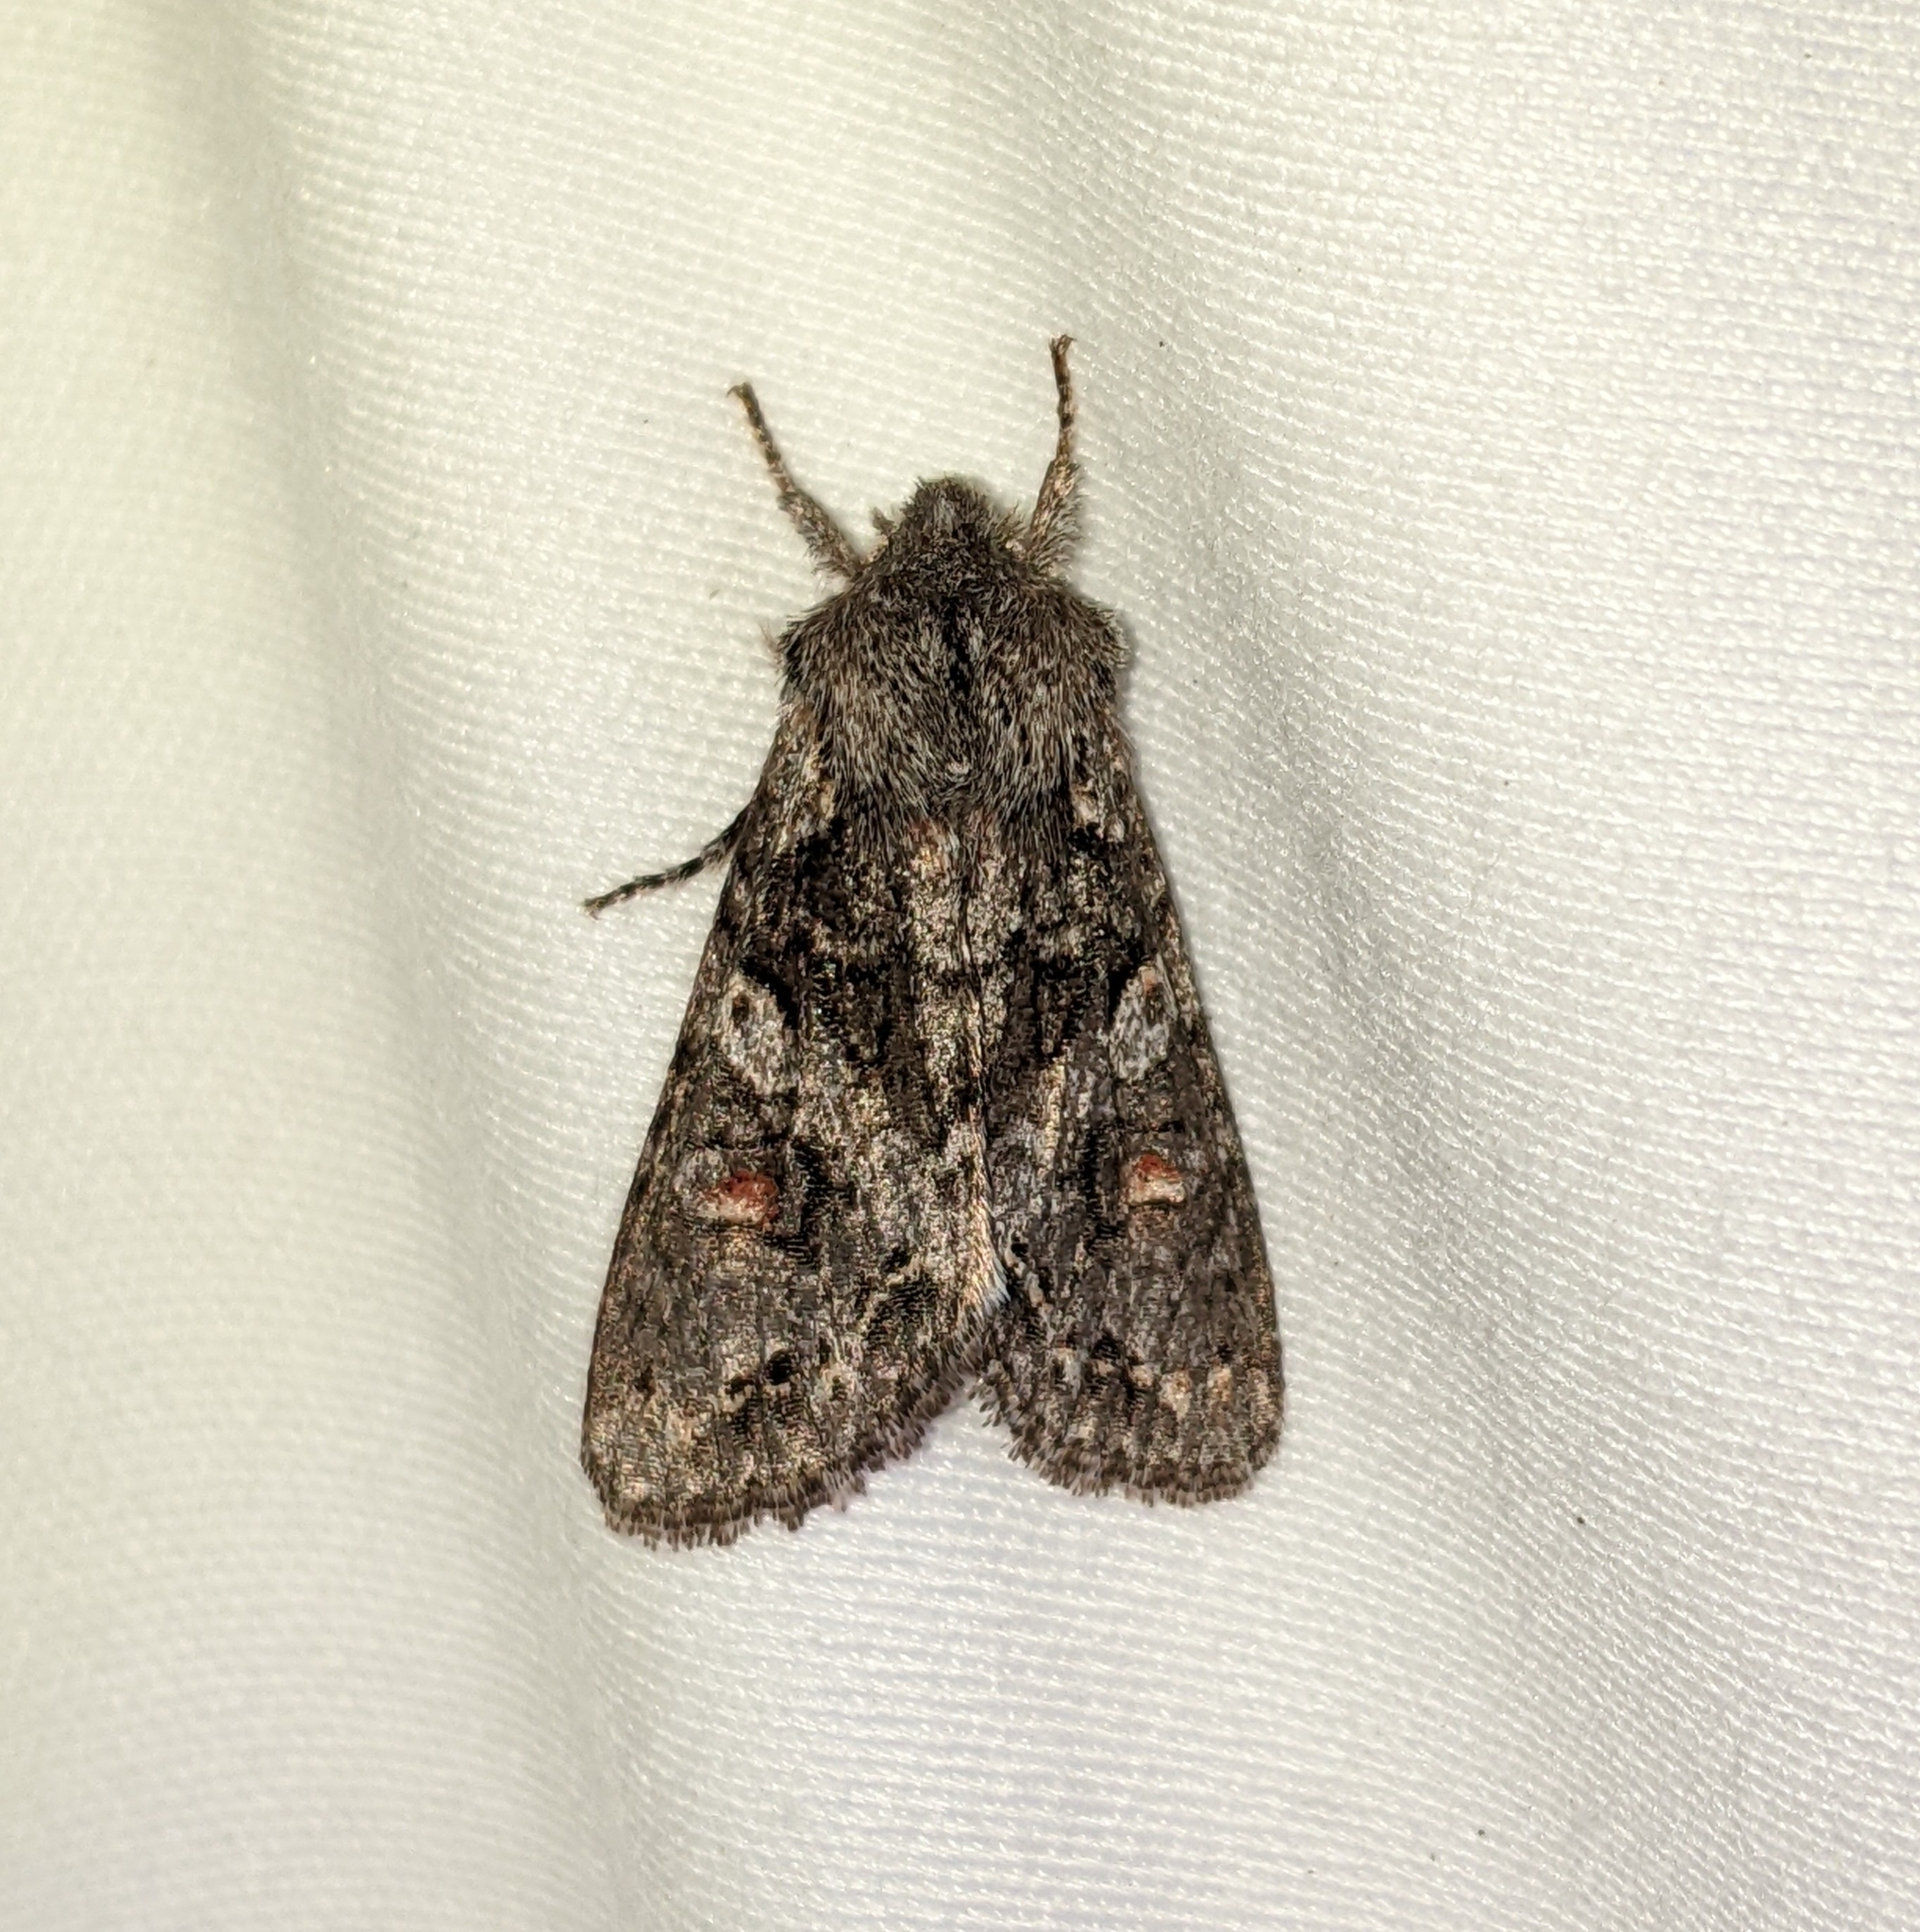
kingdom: Animalia
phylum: Arthropoda
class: Insecta
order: Lepidoptera
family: Noctuidae
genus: Egira
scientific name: Egira hiemalis
